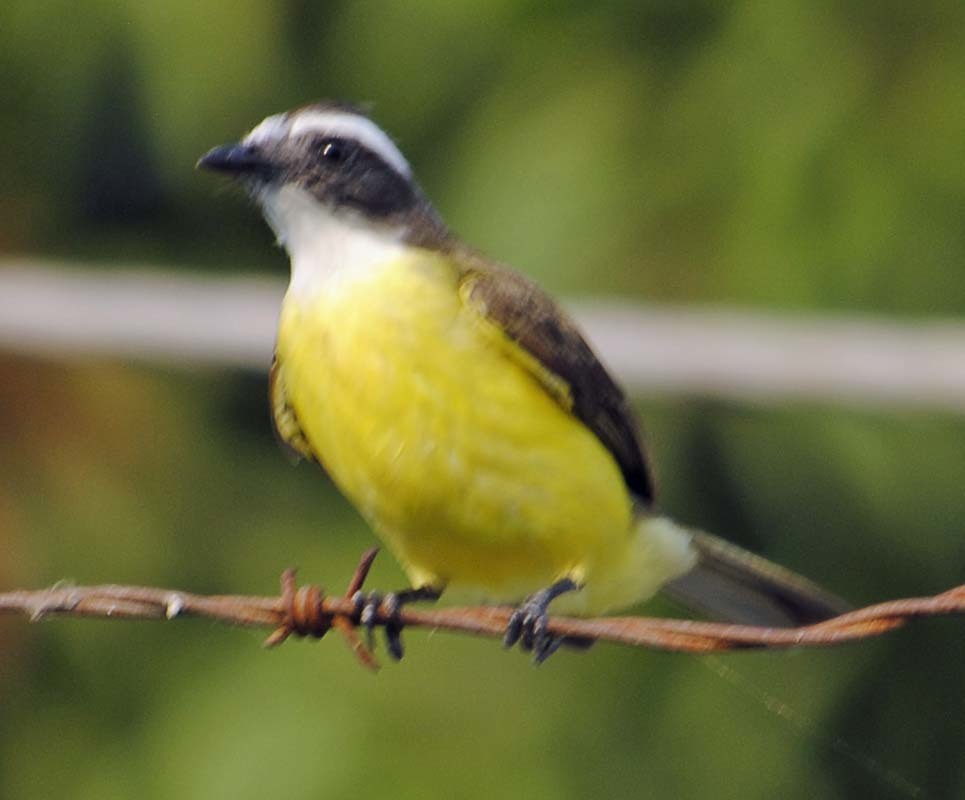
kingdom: Animalia
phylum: Chordata
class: Aves
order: Passeriformes
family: Tyrannidae
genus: Myiozetetes
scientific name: Myiozetetes similis
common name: Social flycatcher
